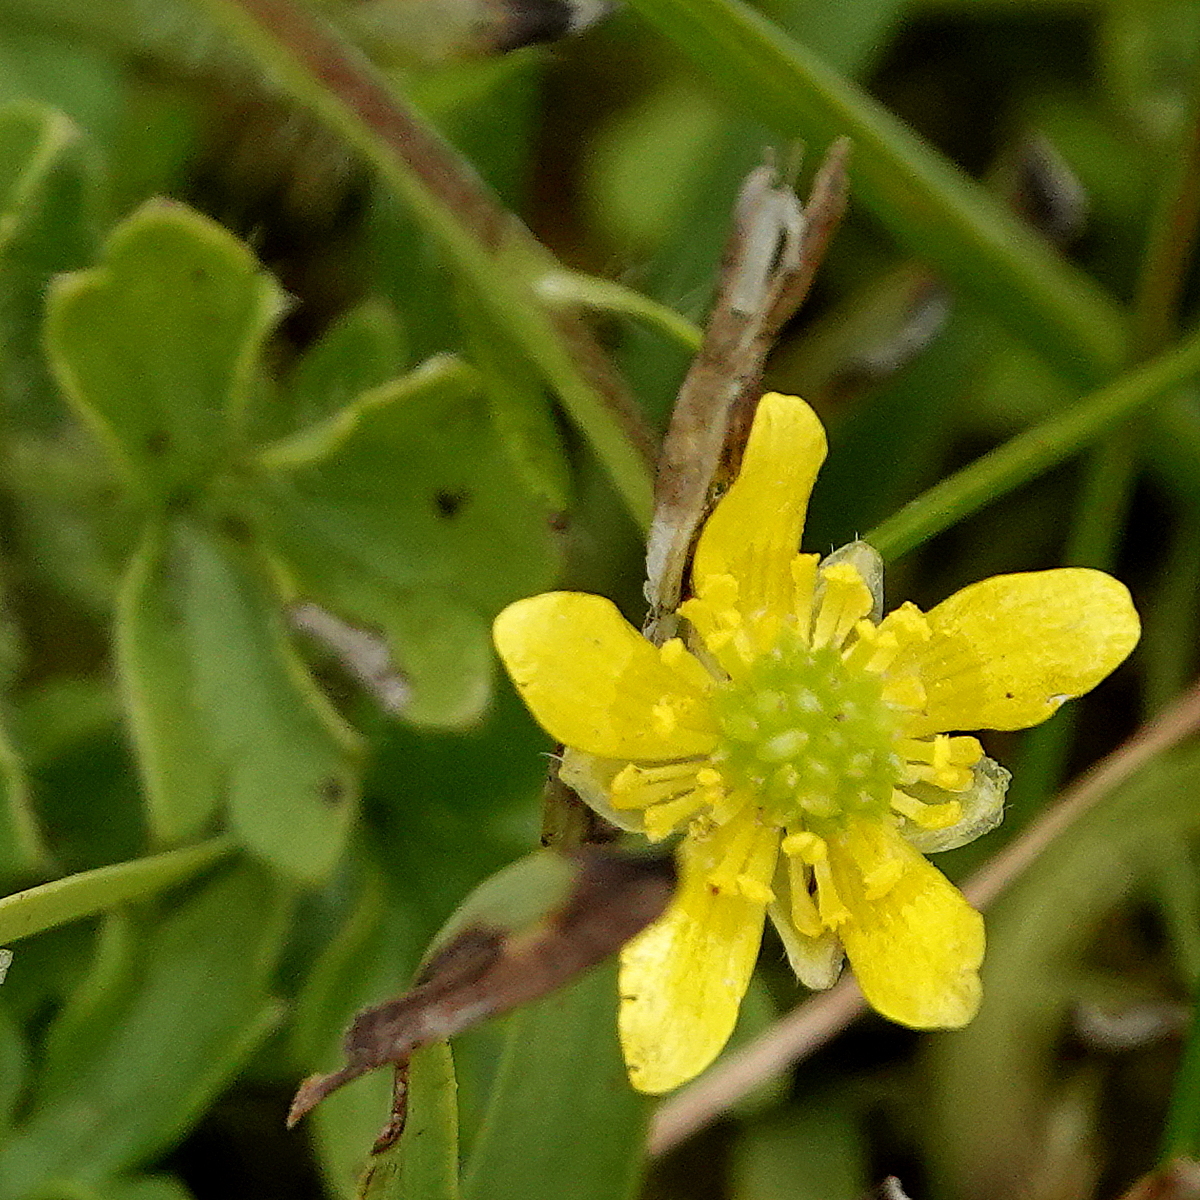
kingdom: Plantae
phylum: Tracheophyta
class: Magnoliopsida
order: Ranunculales
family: Ranunculaceae
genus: Ranunculus
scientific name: Ranunculus pimpinellifolius
